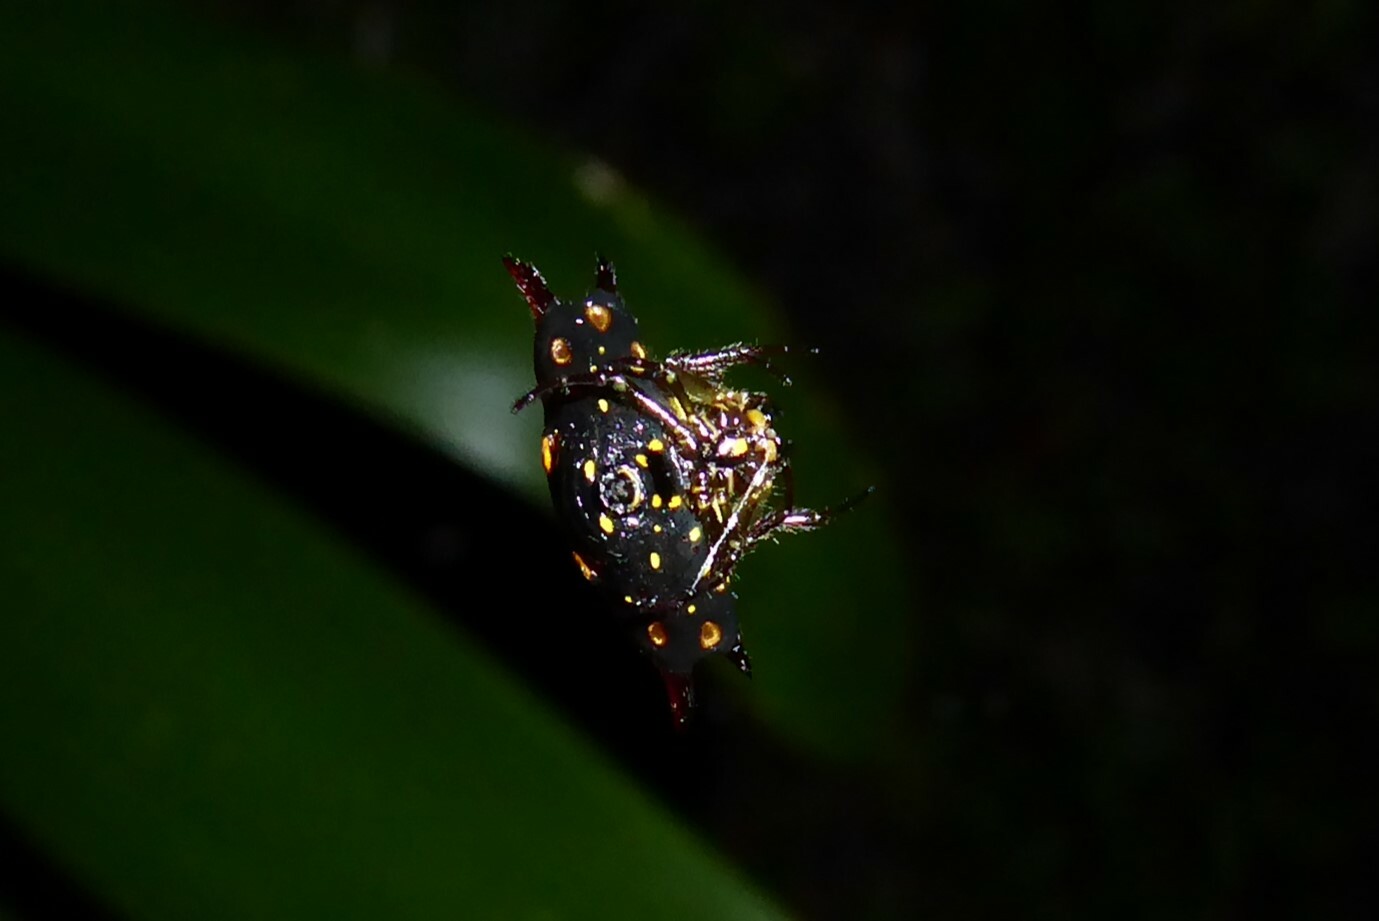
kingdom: Animalia
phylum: Arthropoda
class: Arachnida
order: Araneae
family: Araneidae
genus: Gasteracantha
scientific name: Gasteracantha quadrispinosa
